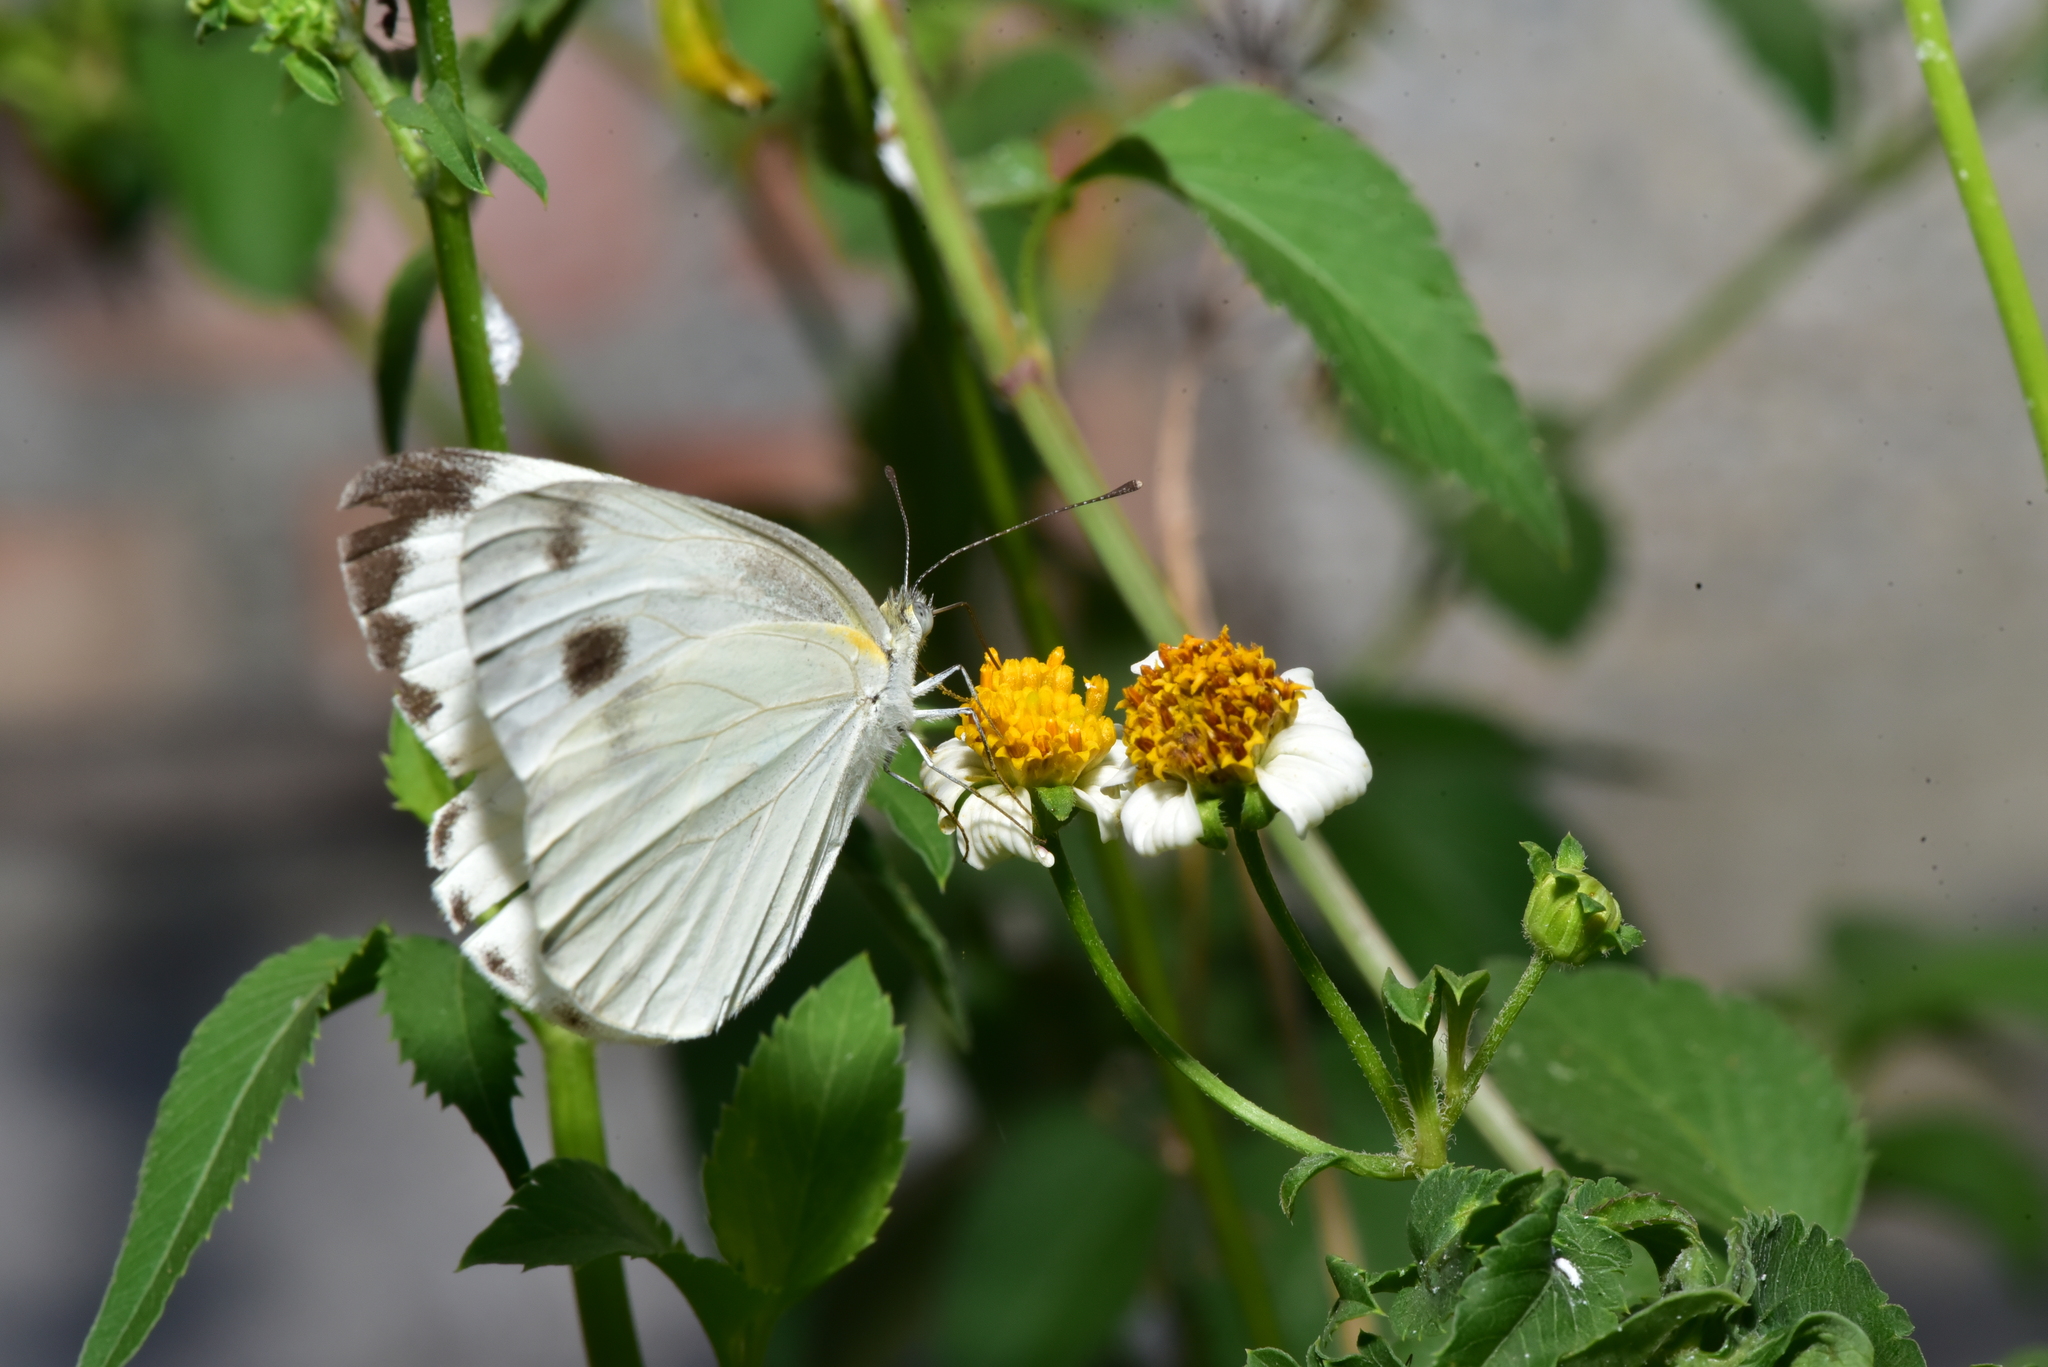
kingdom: Animalia
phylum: Arthropoda
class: Insecta
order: Lepidoptera
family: Pieridae
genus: Pieris
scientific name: Pieris canidia
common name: Indian cabbage white
